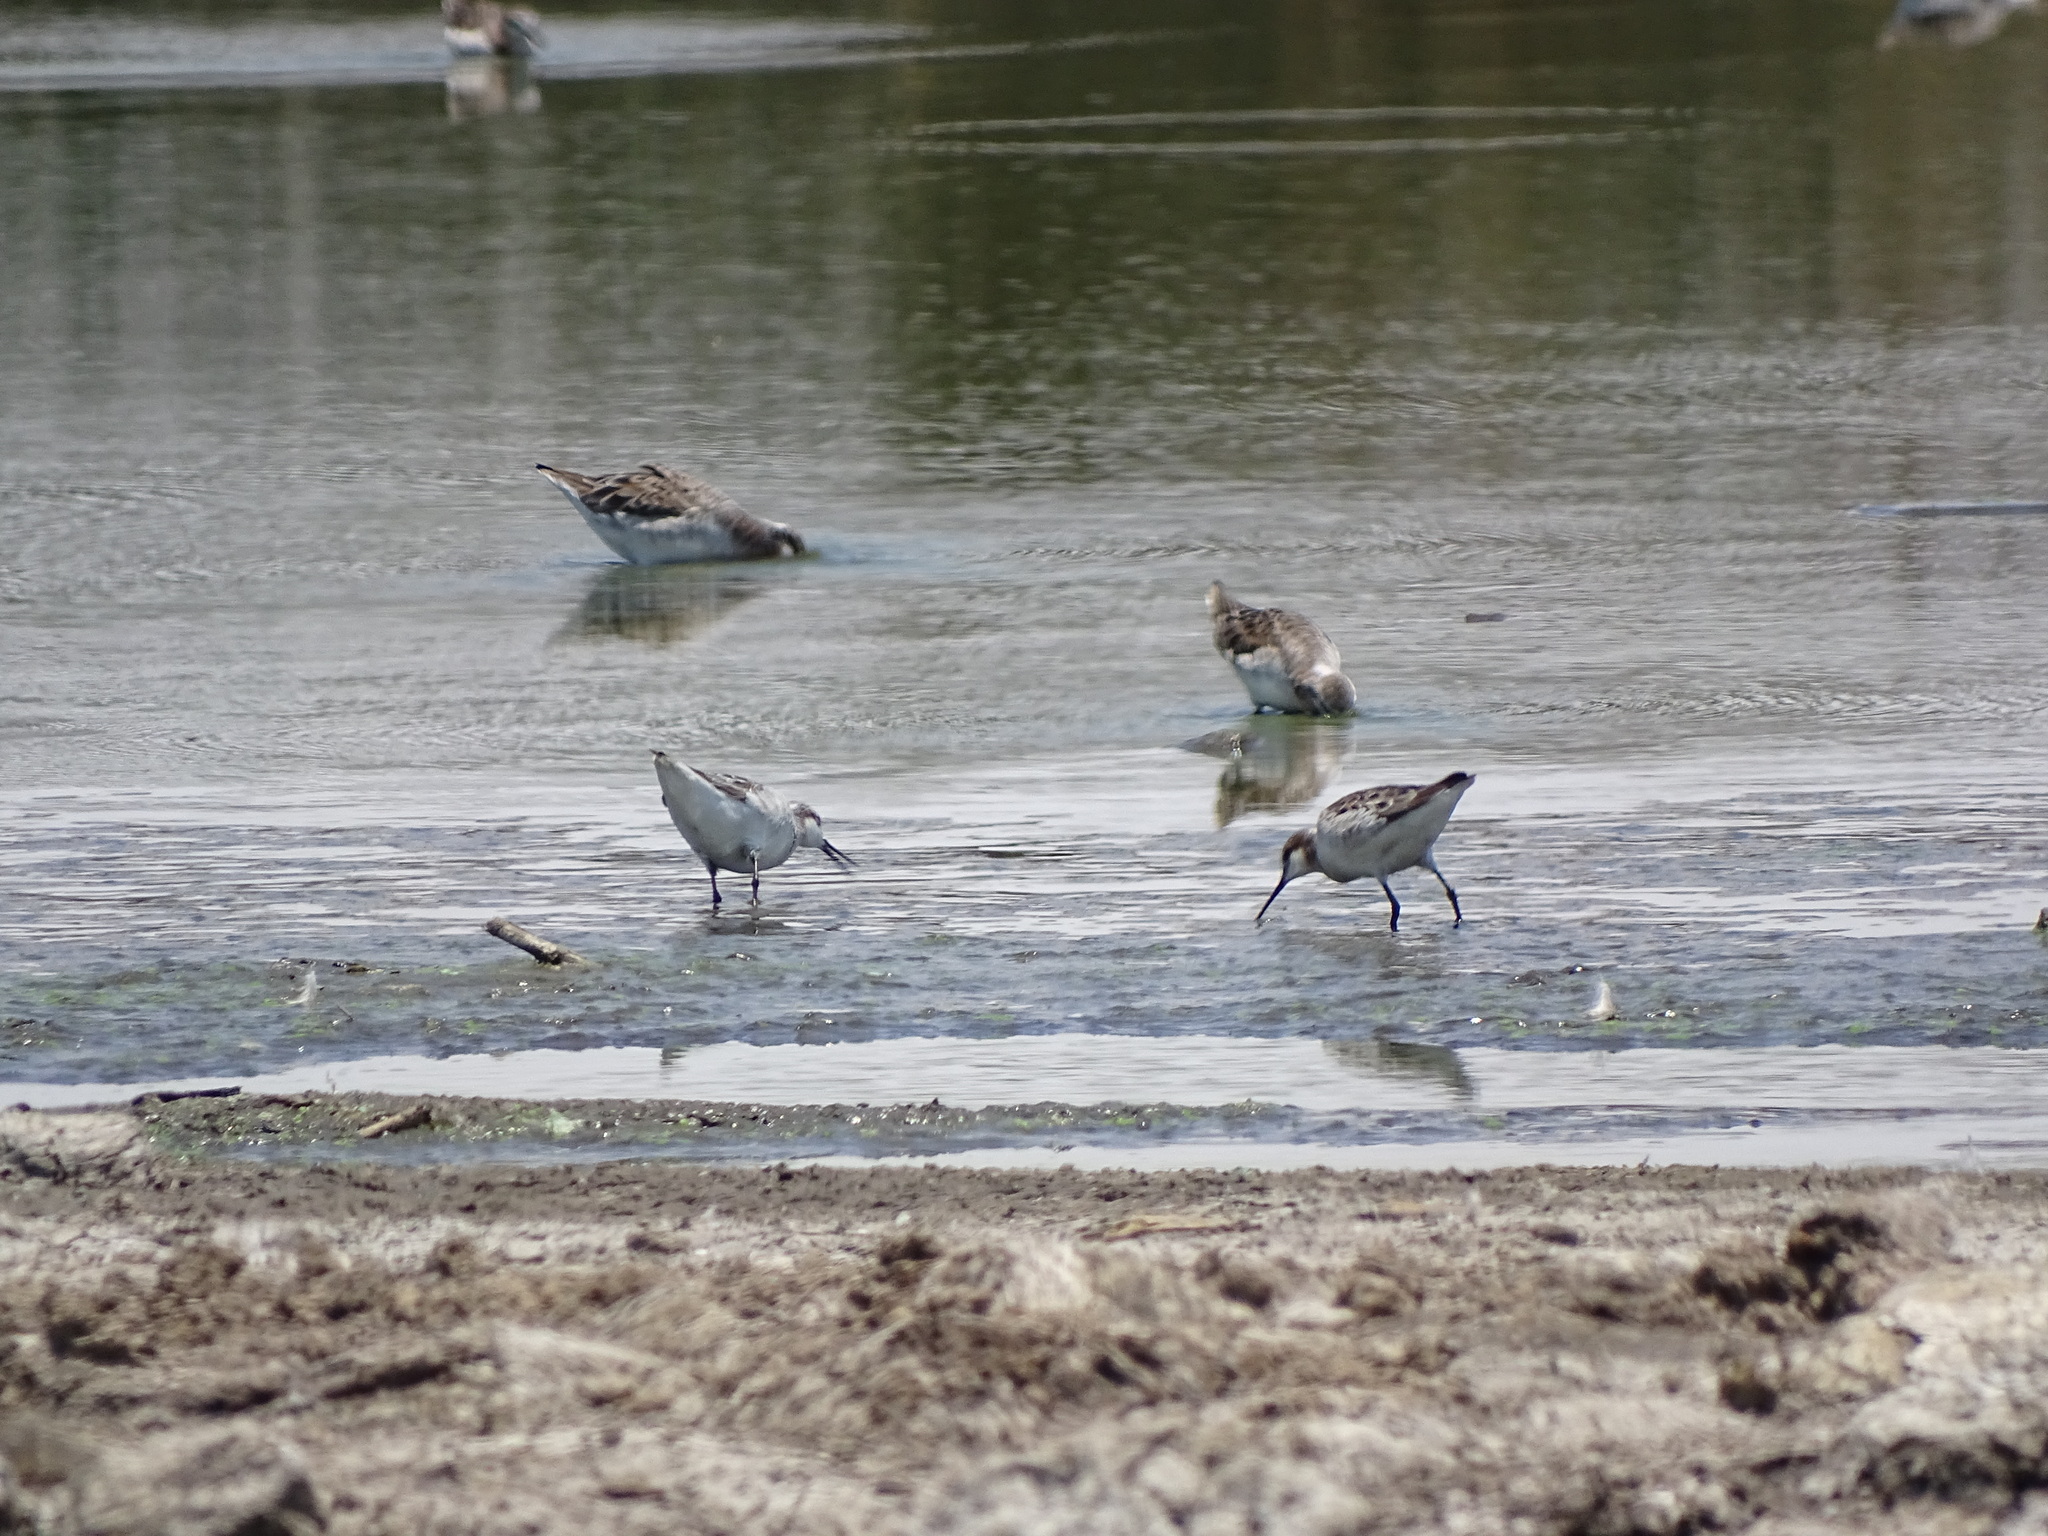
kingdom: Animalia
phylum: Chordata
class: Aves
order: Charadriiformes
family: Scolopacidae
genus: Phalaropus
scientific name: Phalaropus tricolor
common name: Wilson's phalarope
